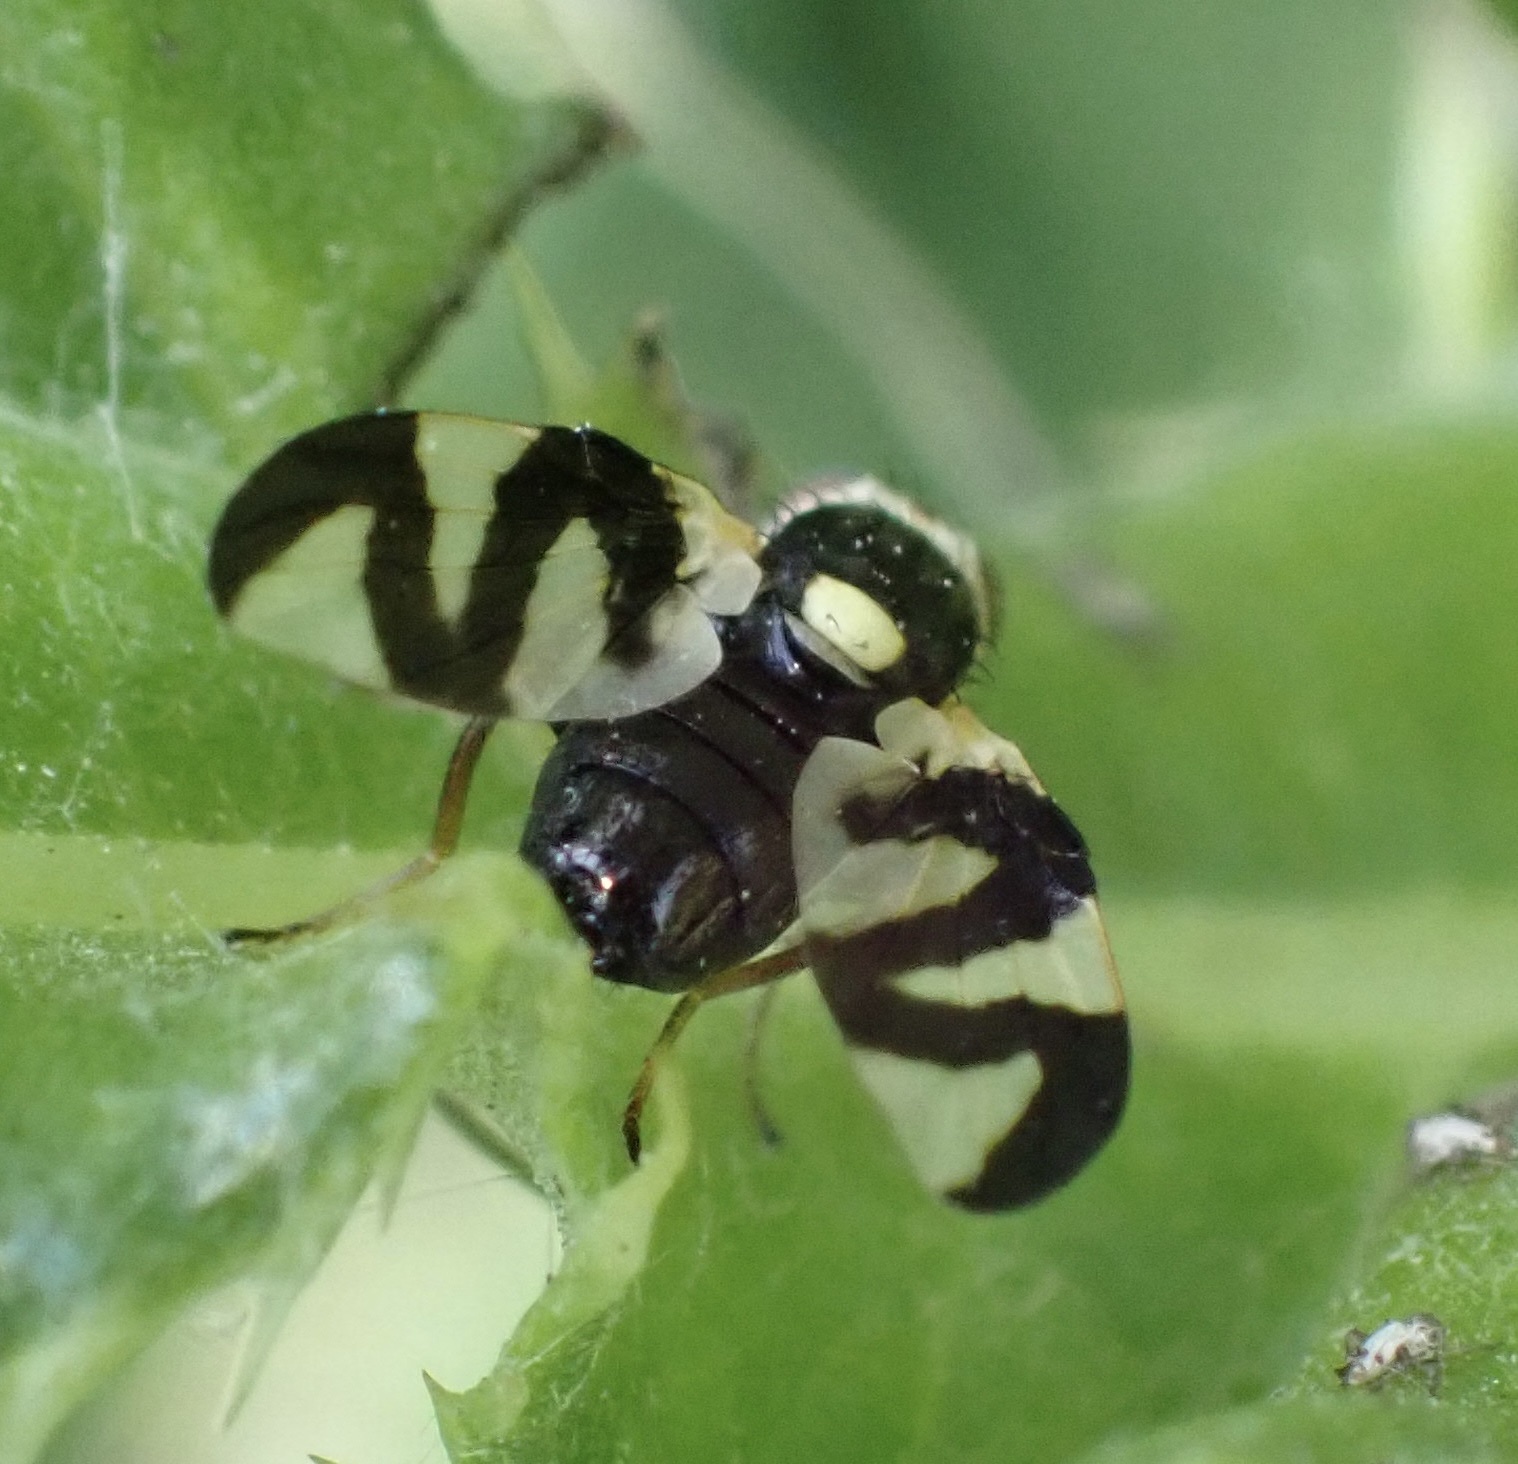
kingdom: Animalia
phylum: Arthropoda
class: Insecta
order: Diptera
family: Tephritidae
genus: Urophora
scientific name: Urophora cardui
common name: Fruit fly
